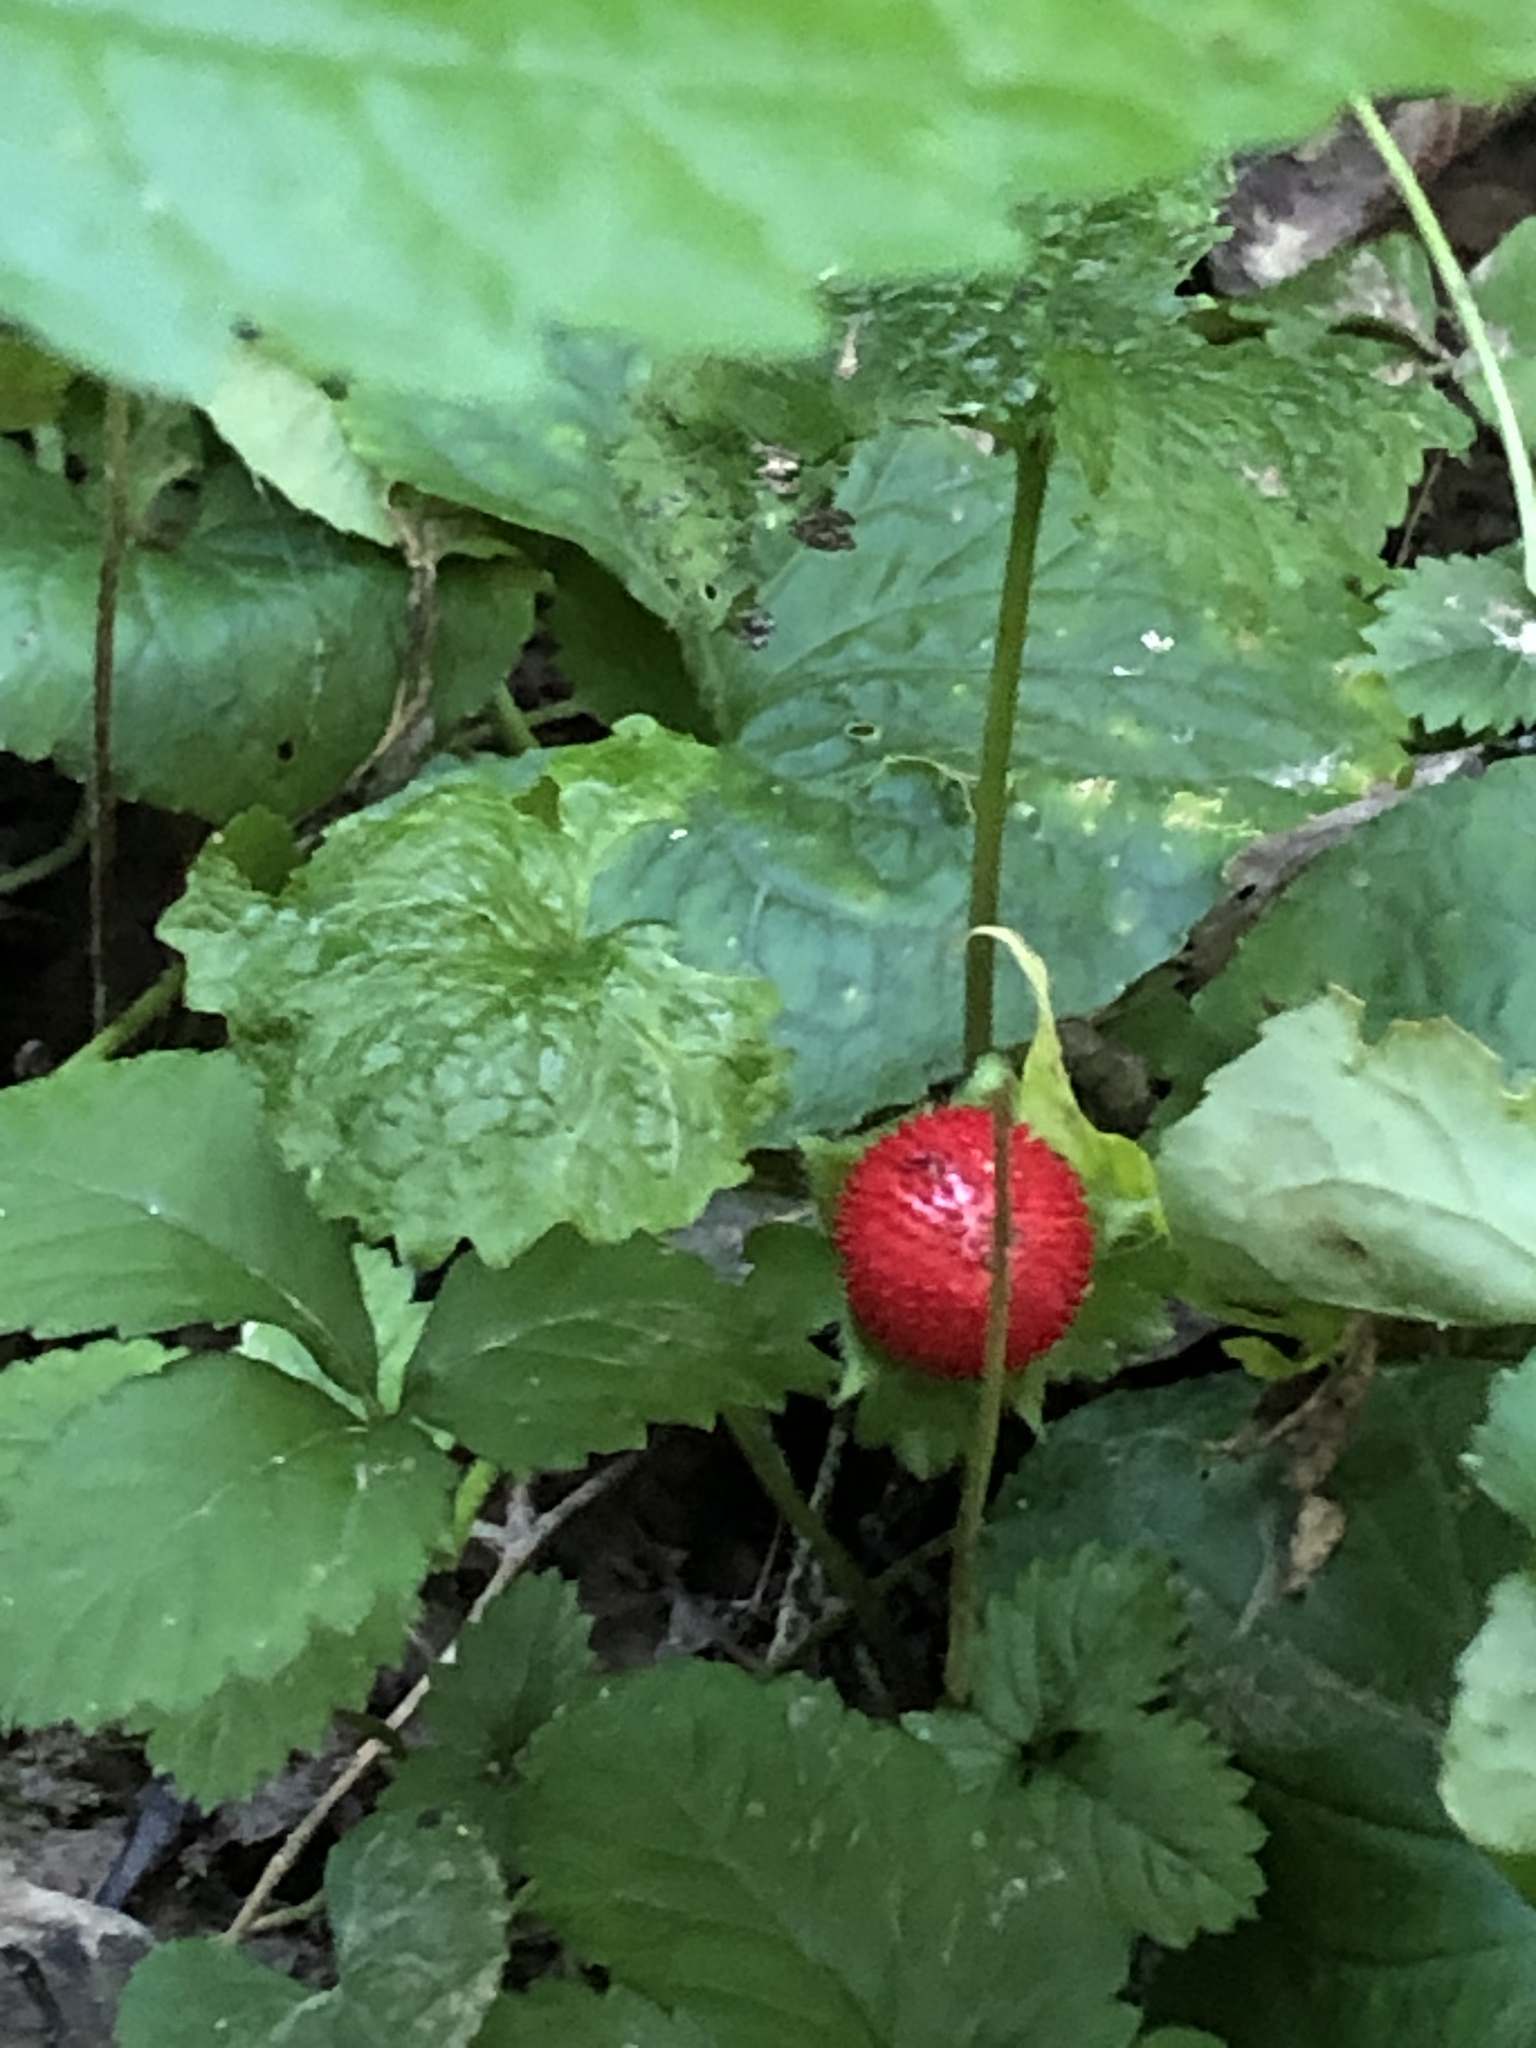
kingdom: Plantae
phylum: Tracheophyta
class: Magnoliopsida
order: Rosales
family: Rosaceae
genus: Potentilla
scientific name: Potentilla indica
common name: Yellow-flowered strawberry
